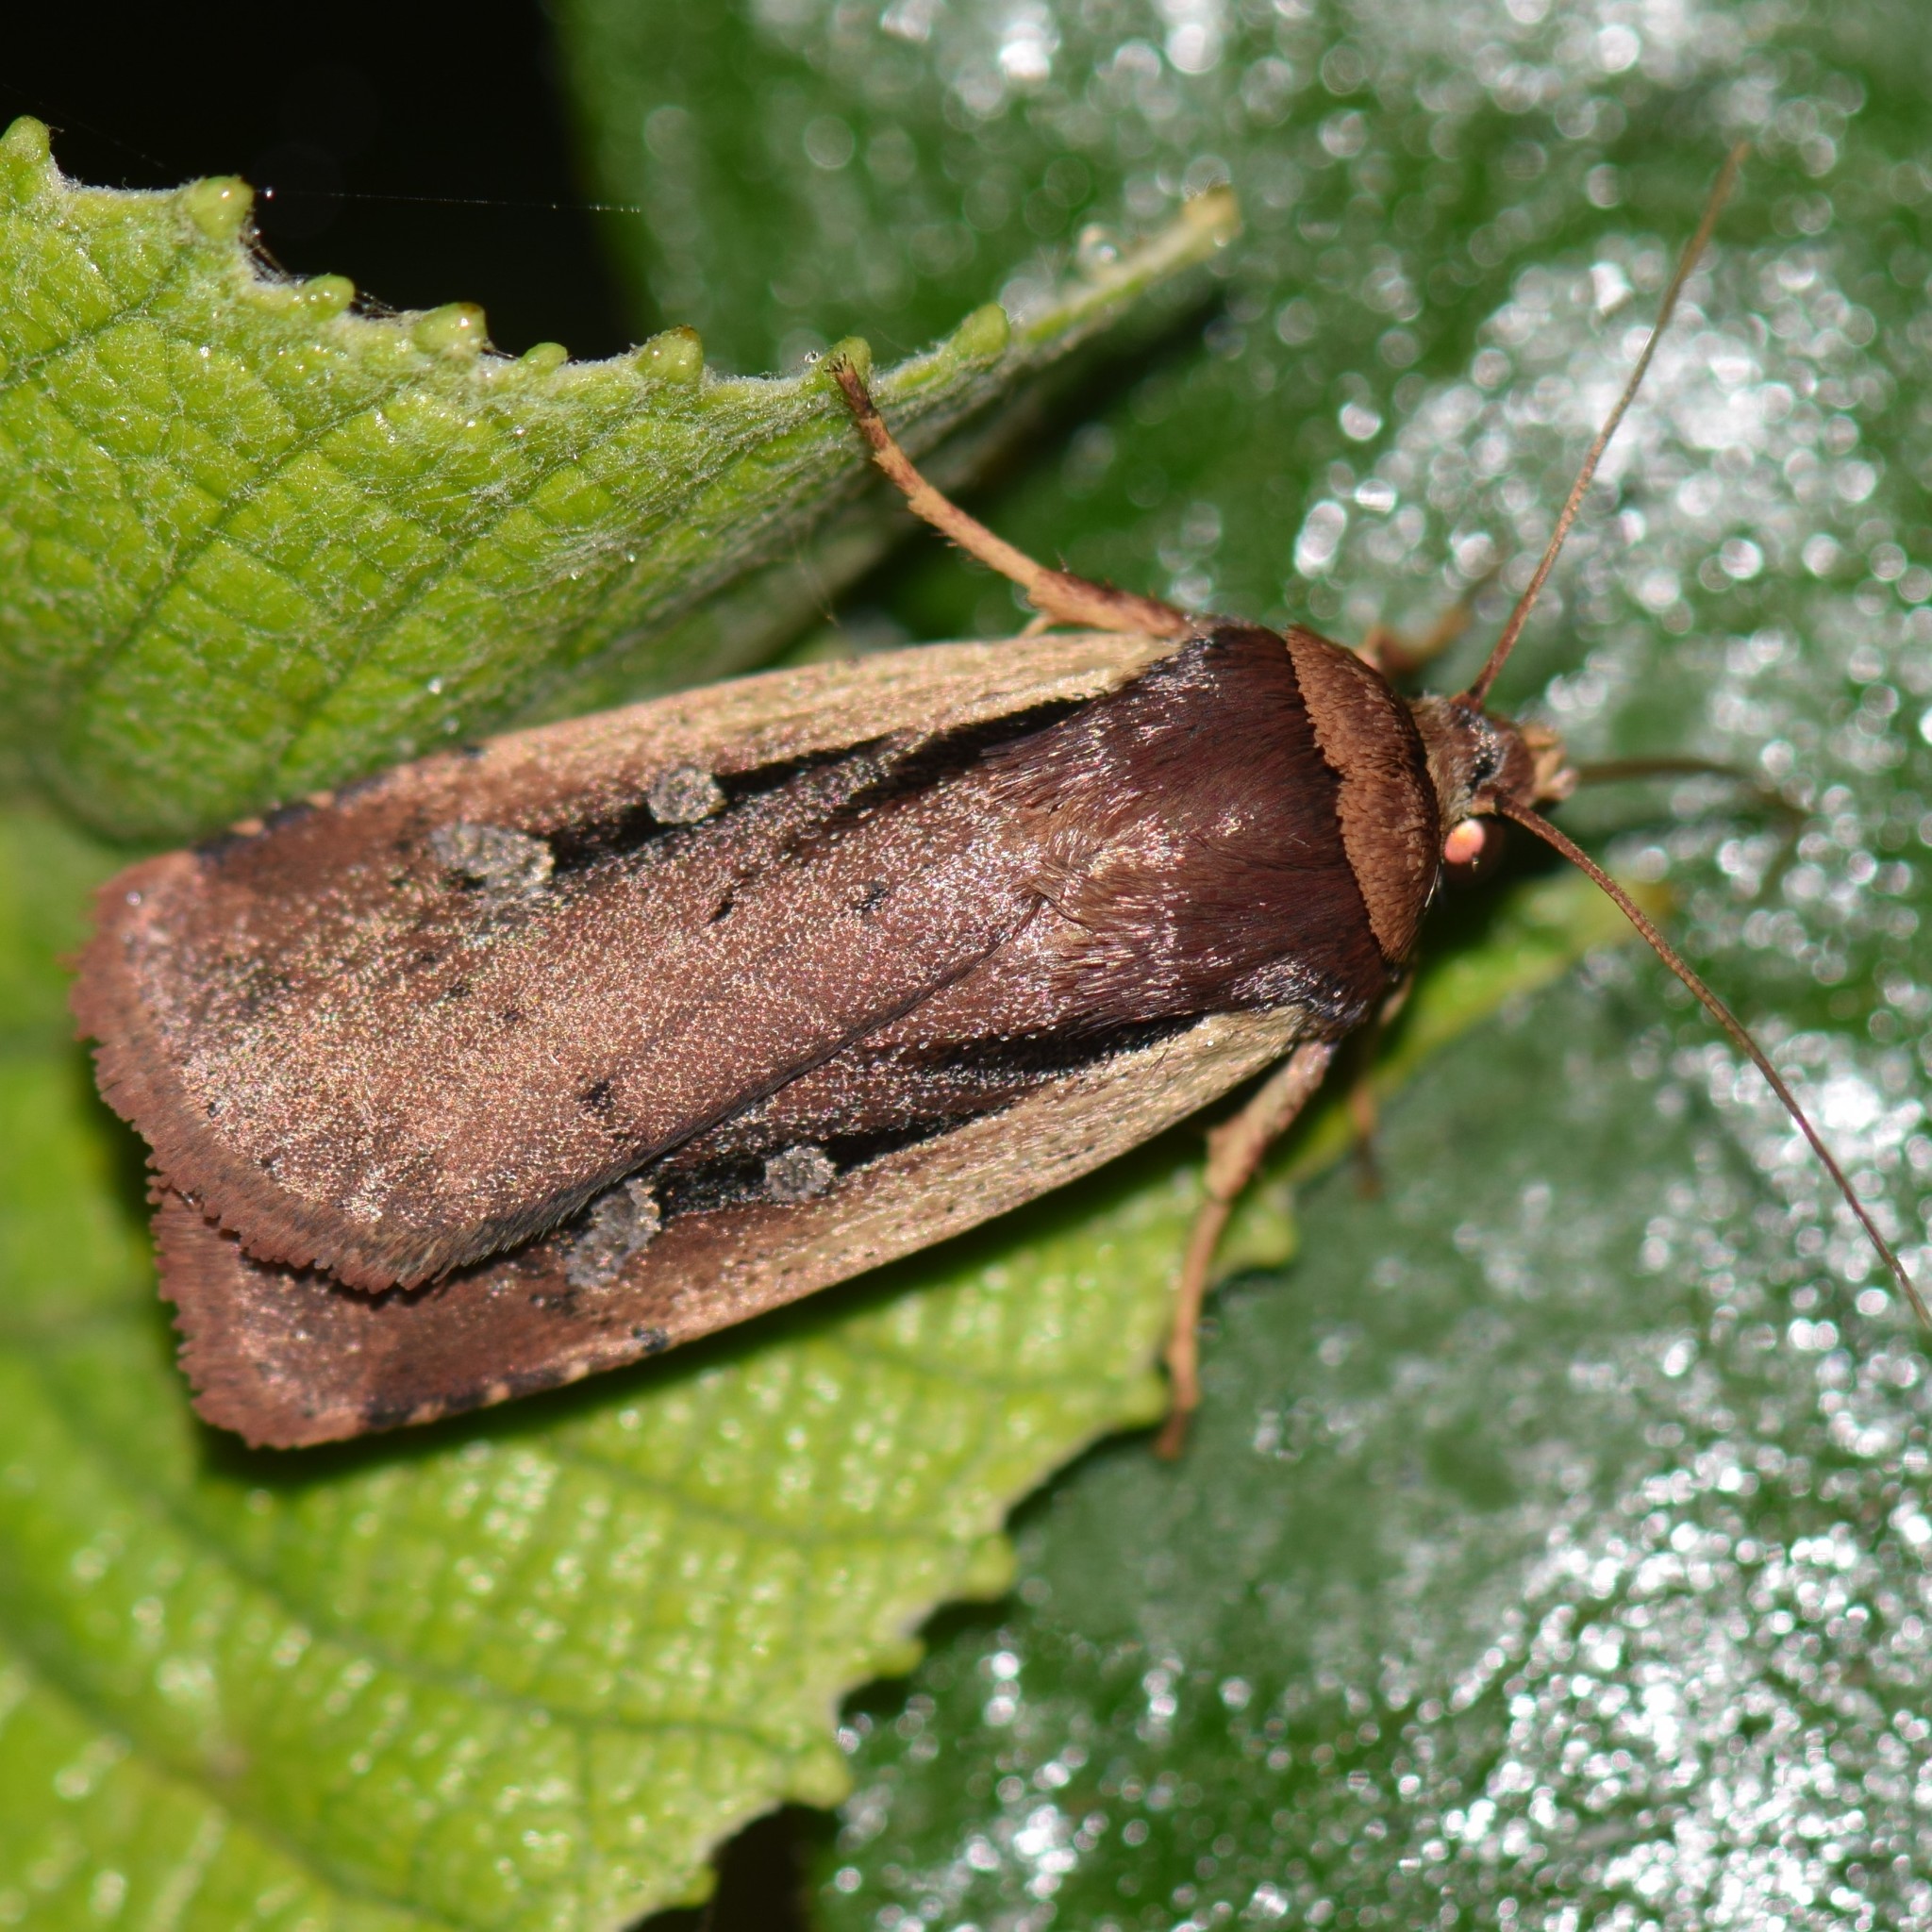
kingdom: Animalia
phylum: Arthropoda
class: Insecta
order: Lepidoptera
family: Noctuidae
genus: Ochropleura
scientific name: Ochropleura implecta
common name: Flame-shouldered dart
